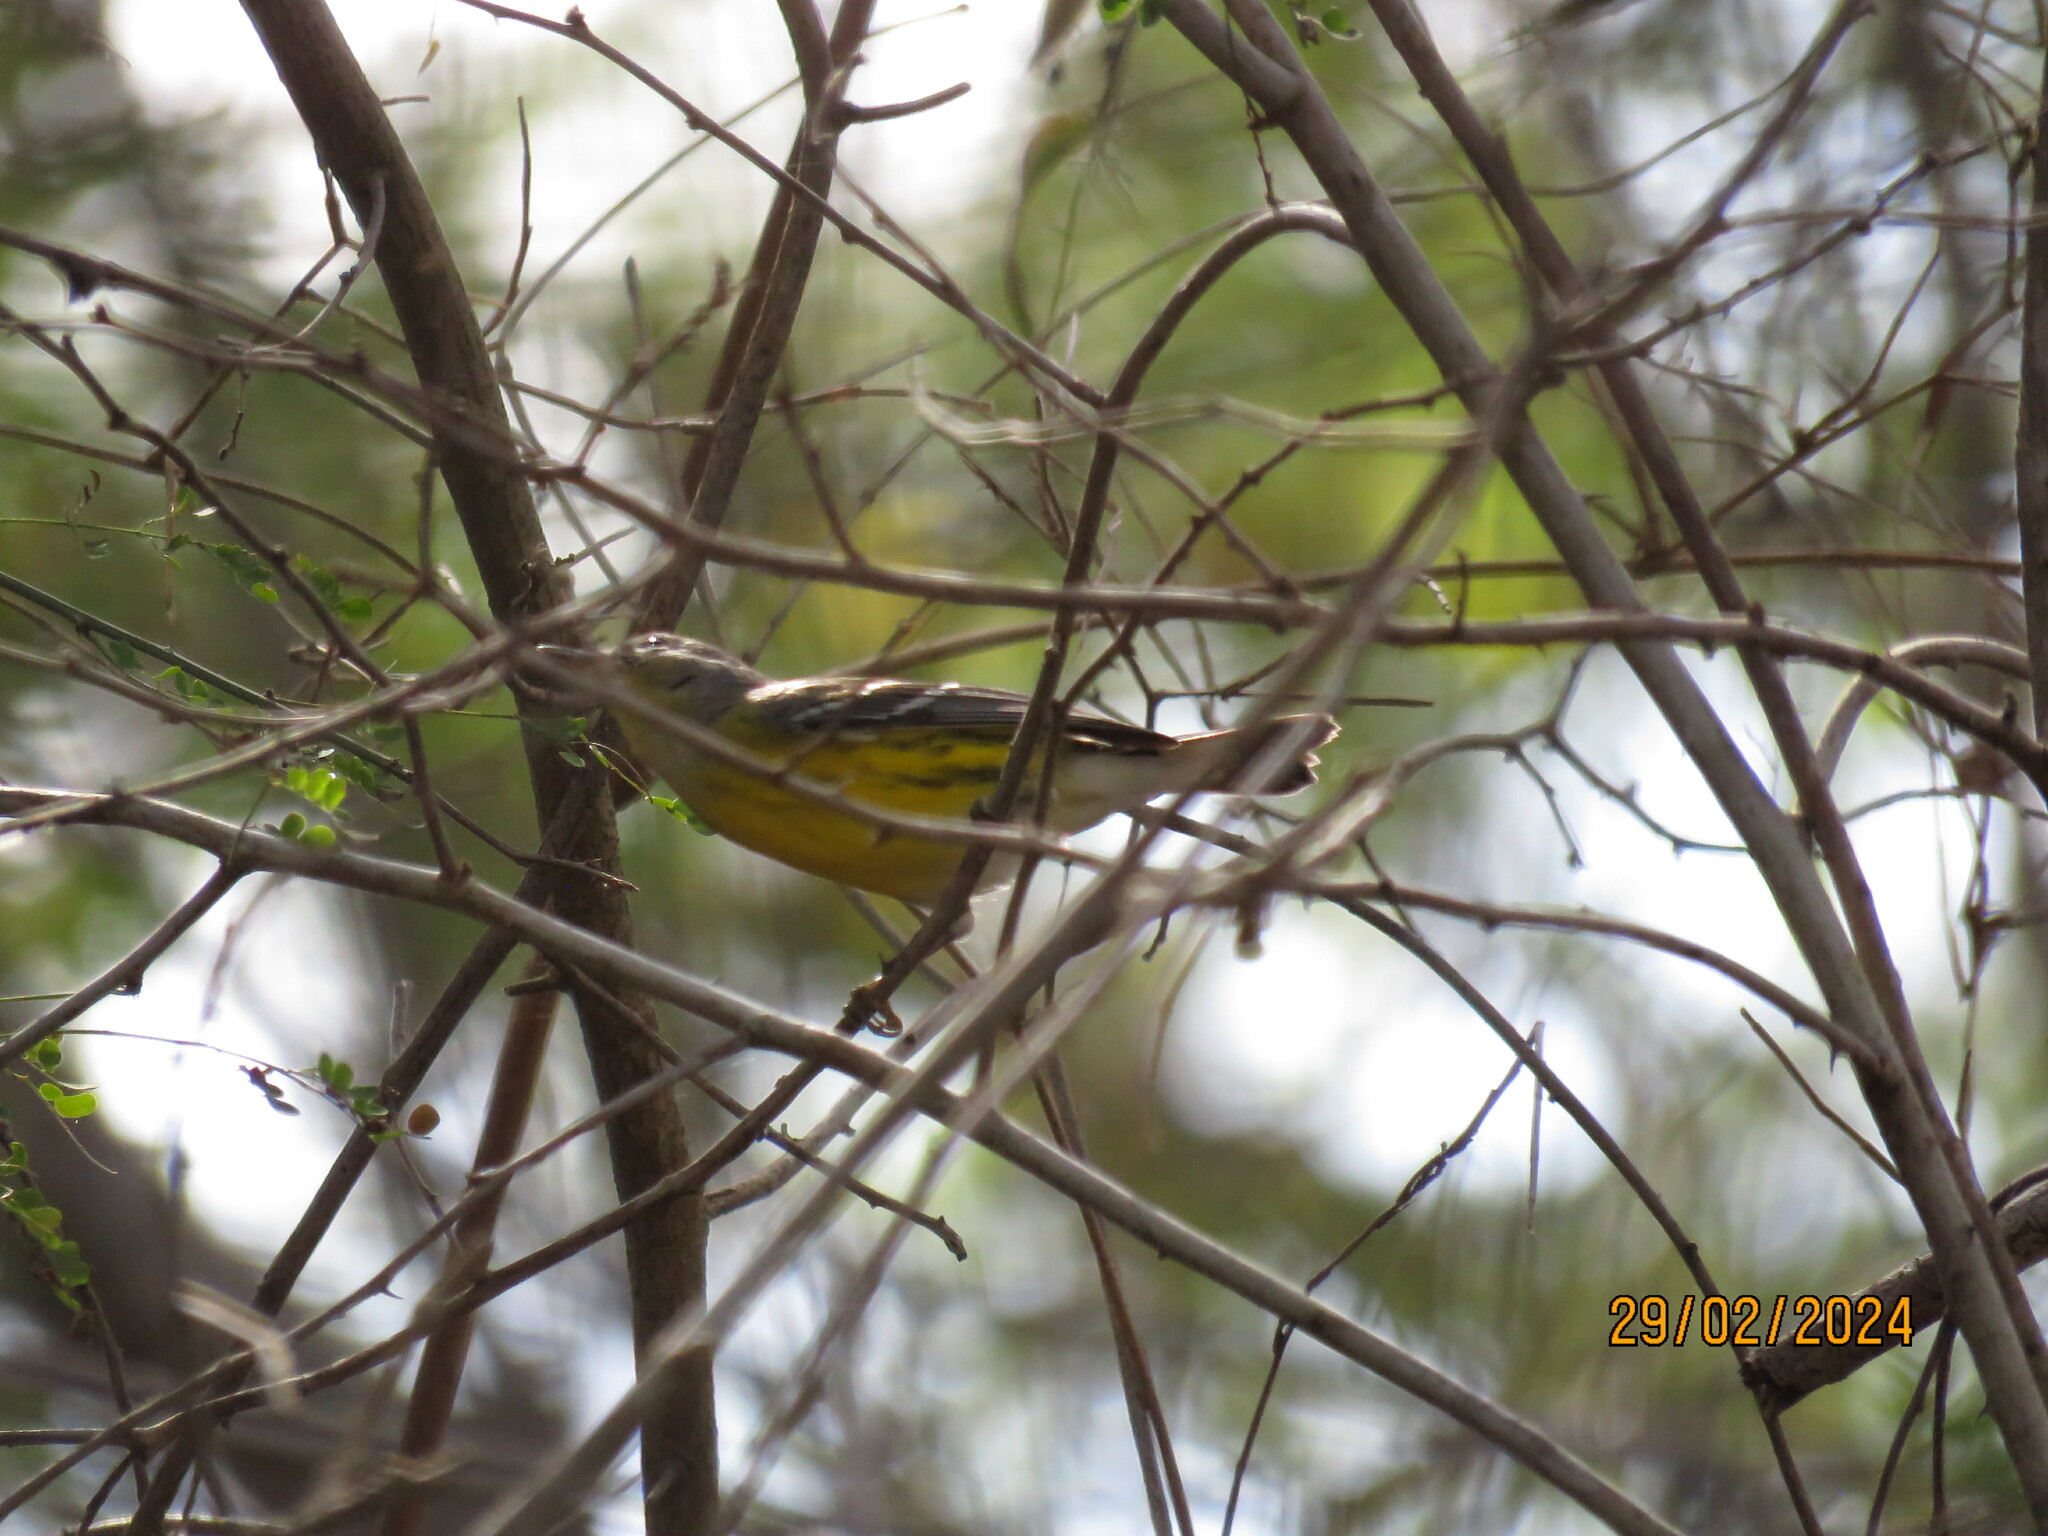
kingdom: Animalia
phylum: Chordata
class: Aves
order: Passeriformes
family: Parulidae
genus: Setophaga
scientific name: Setophaga magnolia
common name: Magnolia warbler
